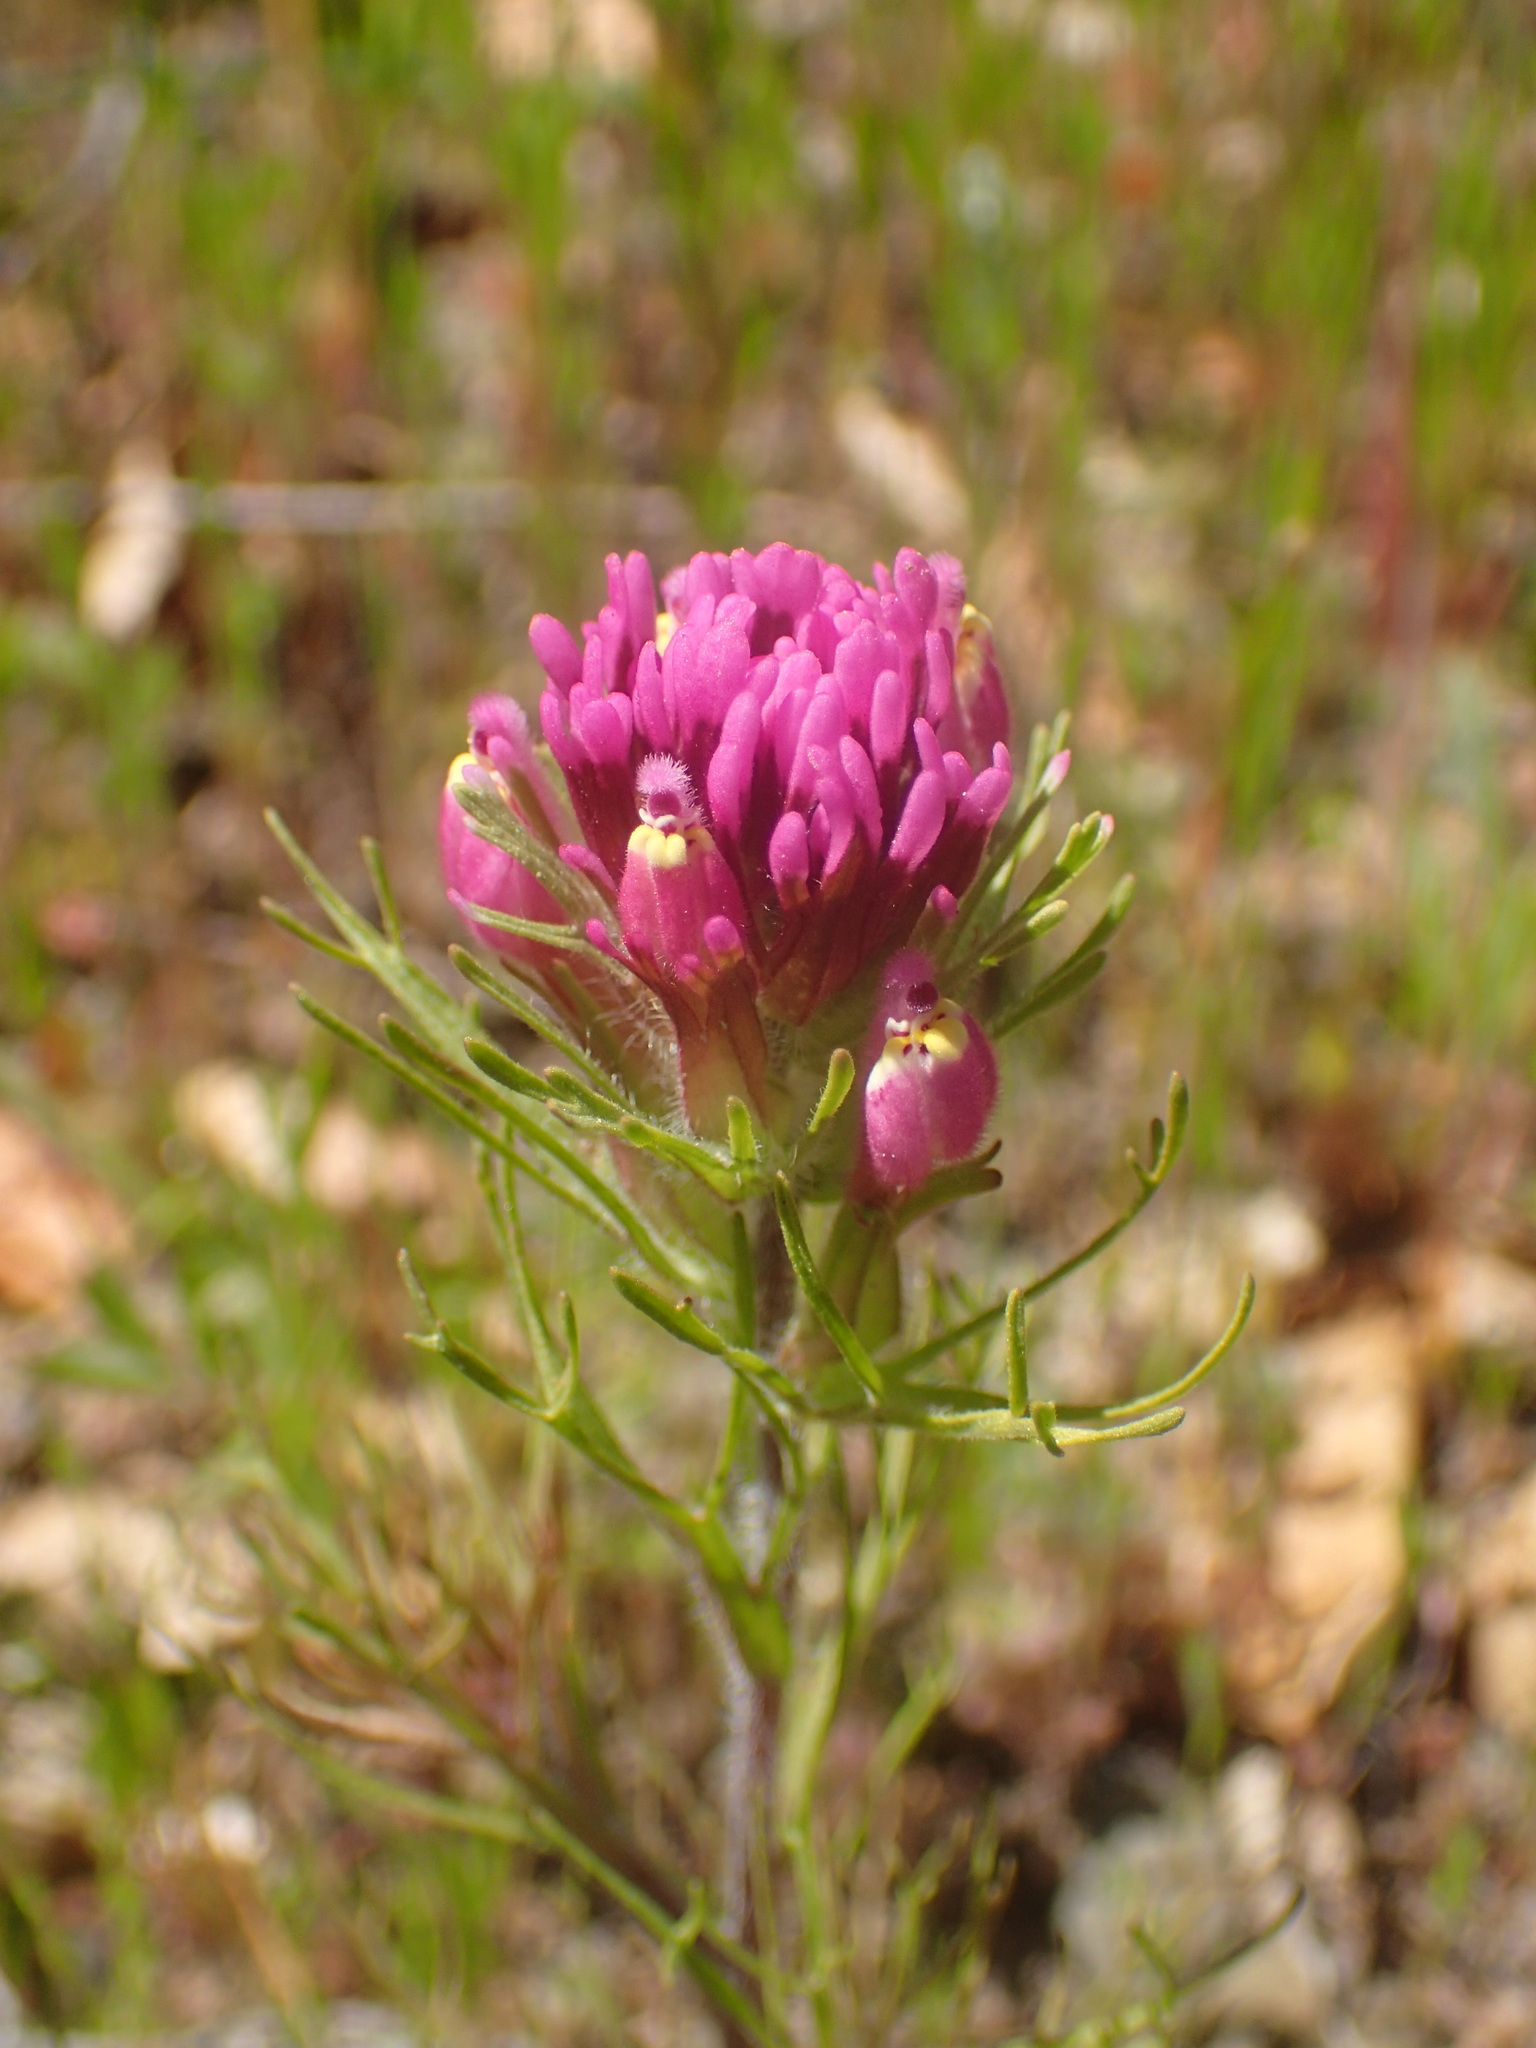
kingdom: Plantae
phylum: Tracheophyta
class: Magnoliopsida
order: Lamiales
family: Orobanchaceae
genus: Castilleja
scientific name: Castilleja exserta
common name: Purple owl-clover
